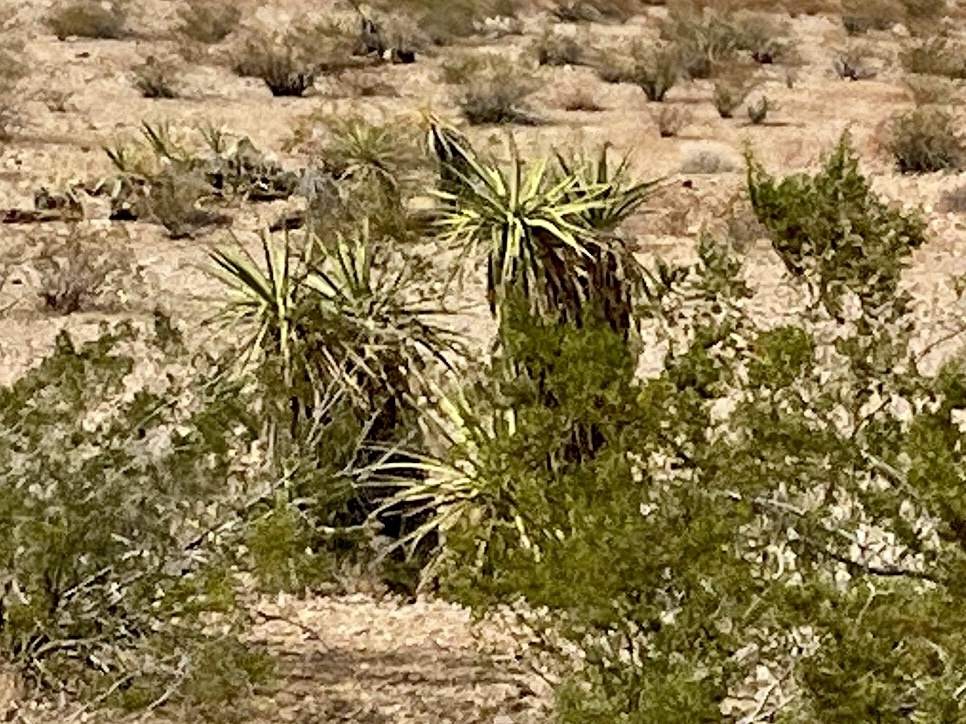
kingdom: Plantae
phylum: Tracheophyta
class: Liliopsida
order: Asparagales
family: Asparagaceae
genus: Yucca
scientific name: Yucca schidigera
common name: Mojave yucca
